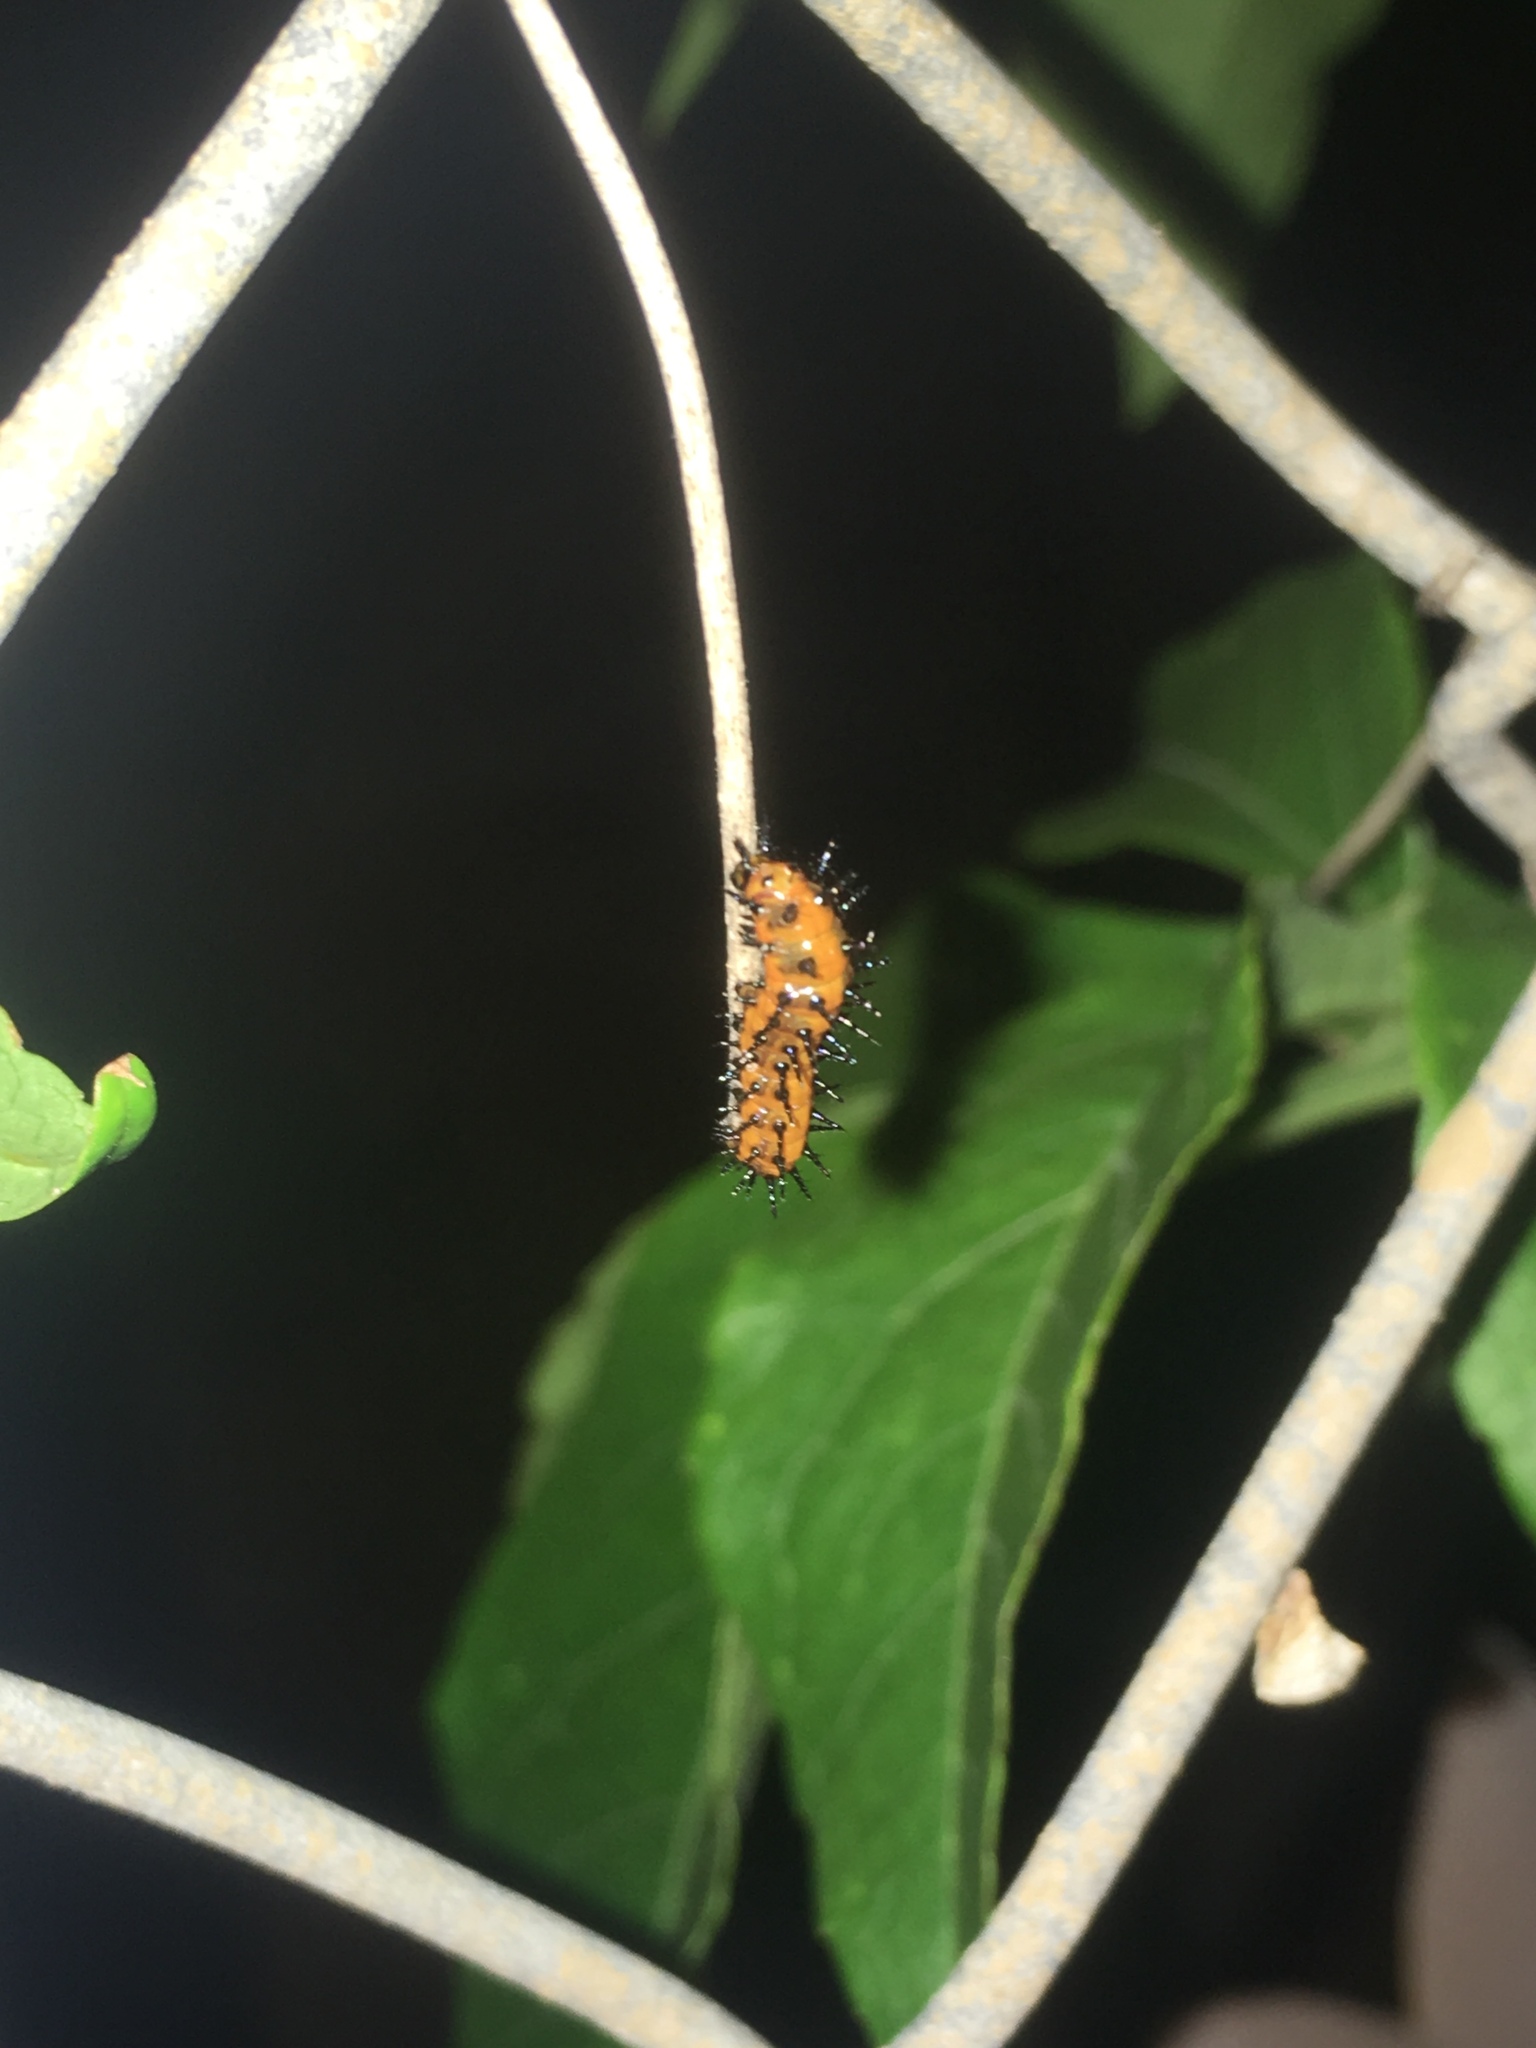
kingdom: Animalia
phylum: Arthropoda
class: Insecta
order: Lepidoptera
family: Nymphalidae
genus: Dione
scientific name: Dione vanillae
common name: Gulf fritillary
